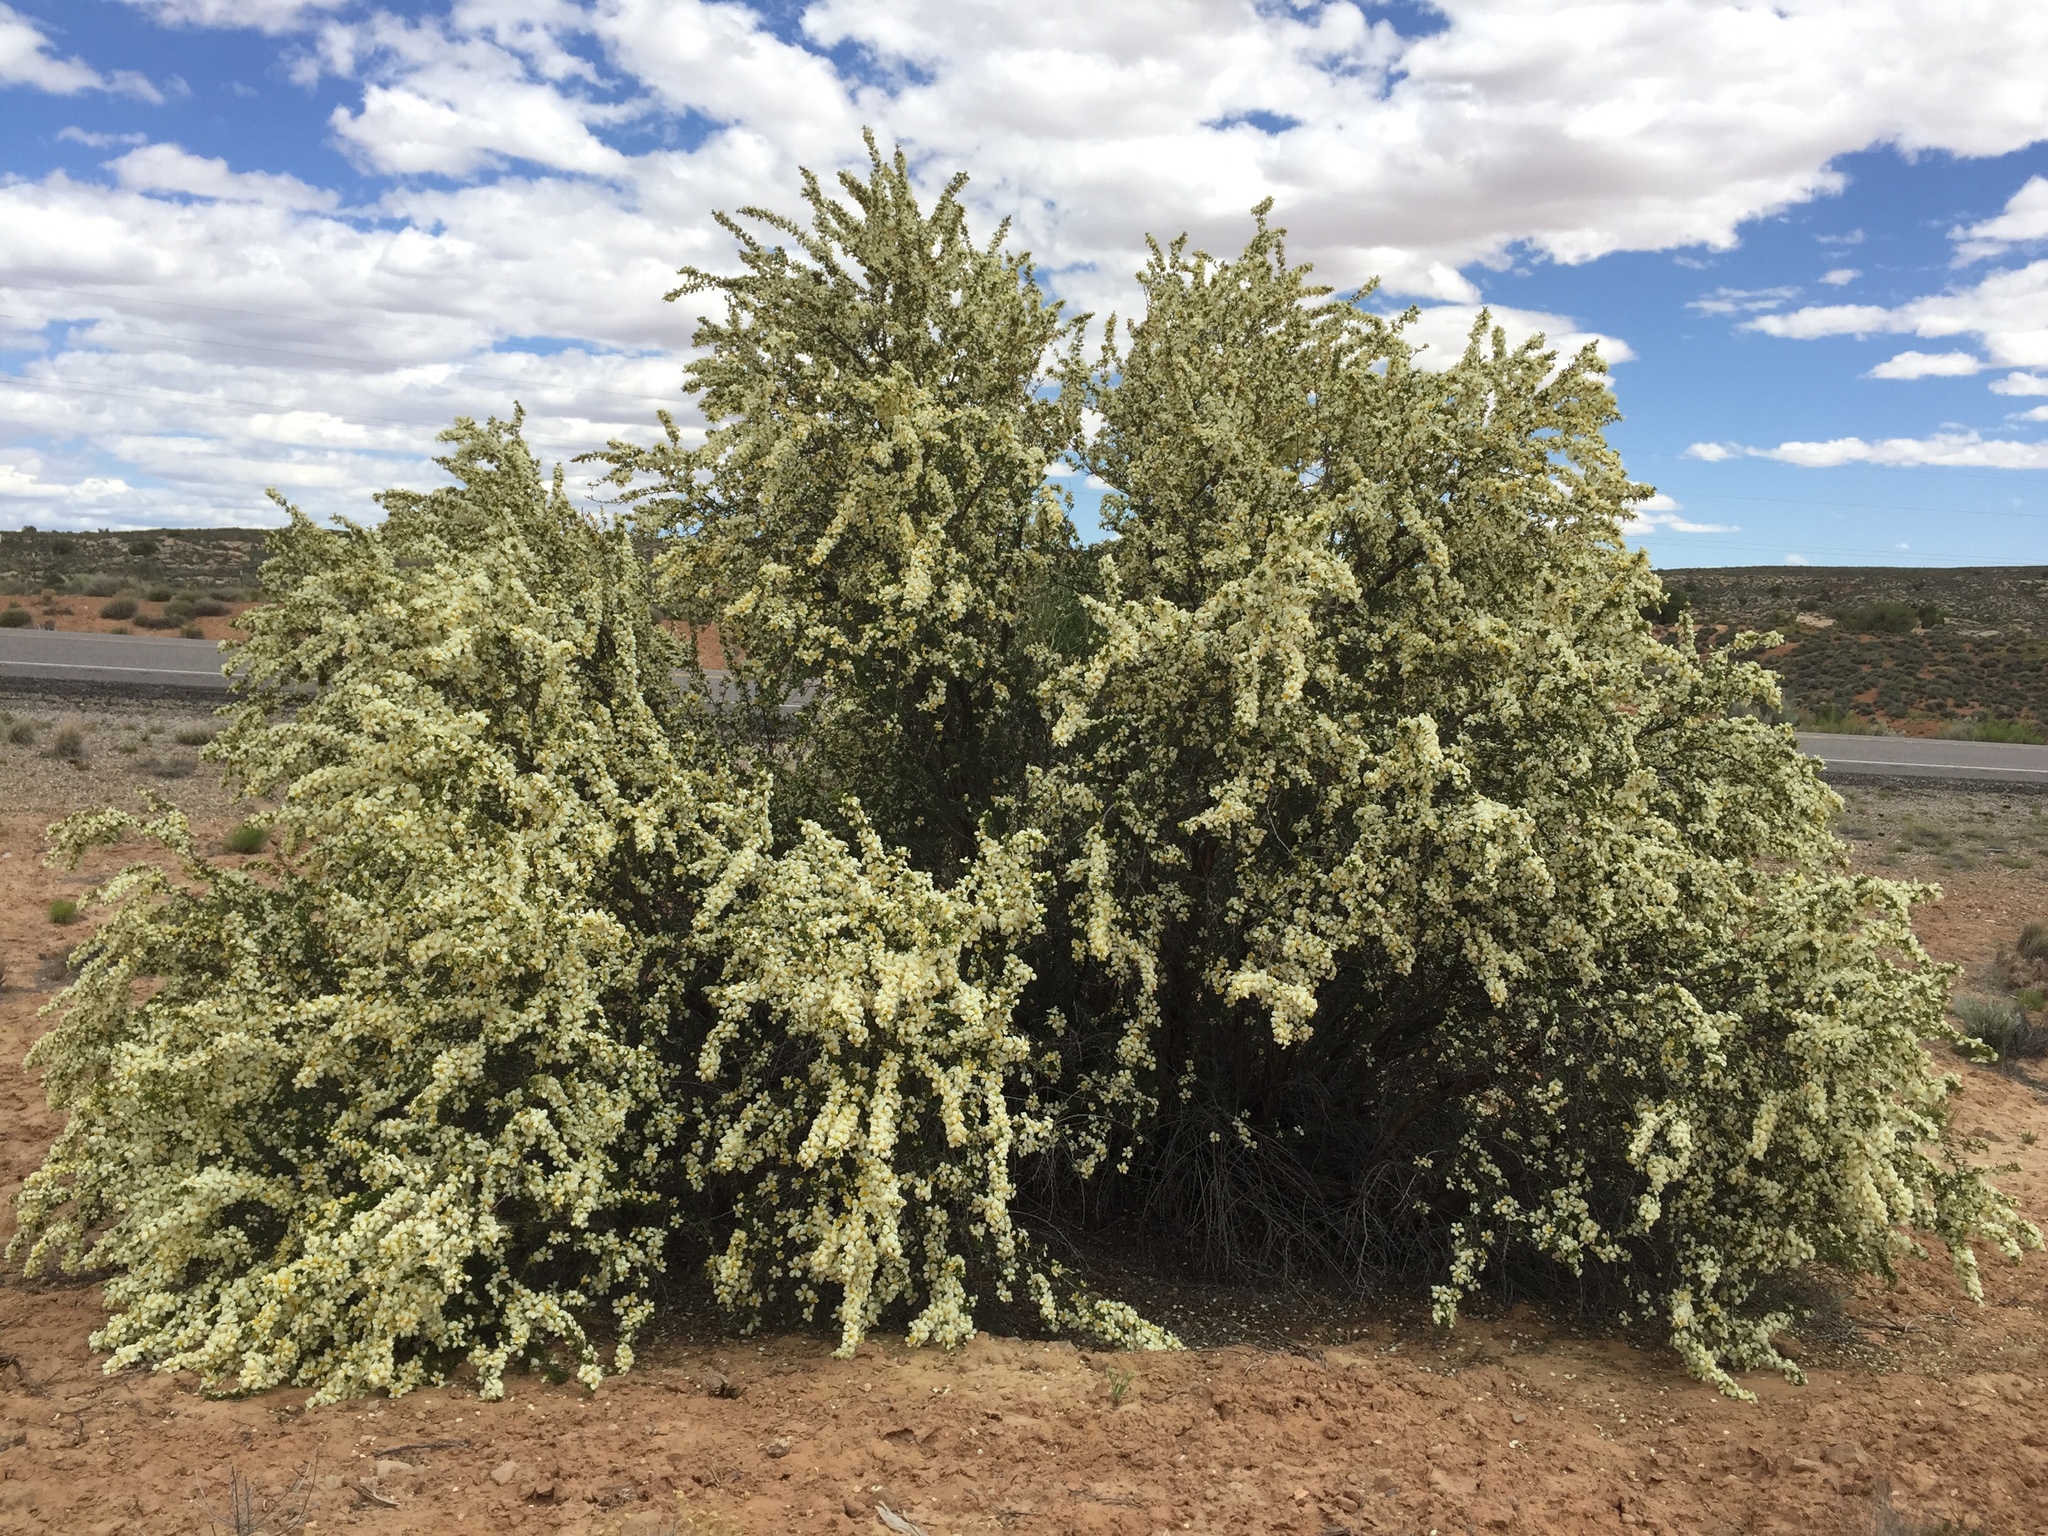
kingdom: Plantae
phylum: Tracheophyta
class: Magnoliopsida
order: Rosales
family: Rosaceae
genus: Purshia
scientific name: Purshia stansburiana
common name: Stansbury's cliffrose
